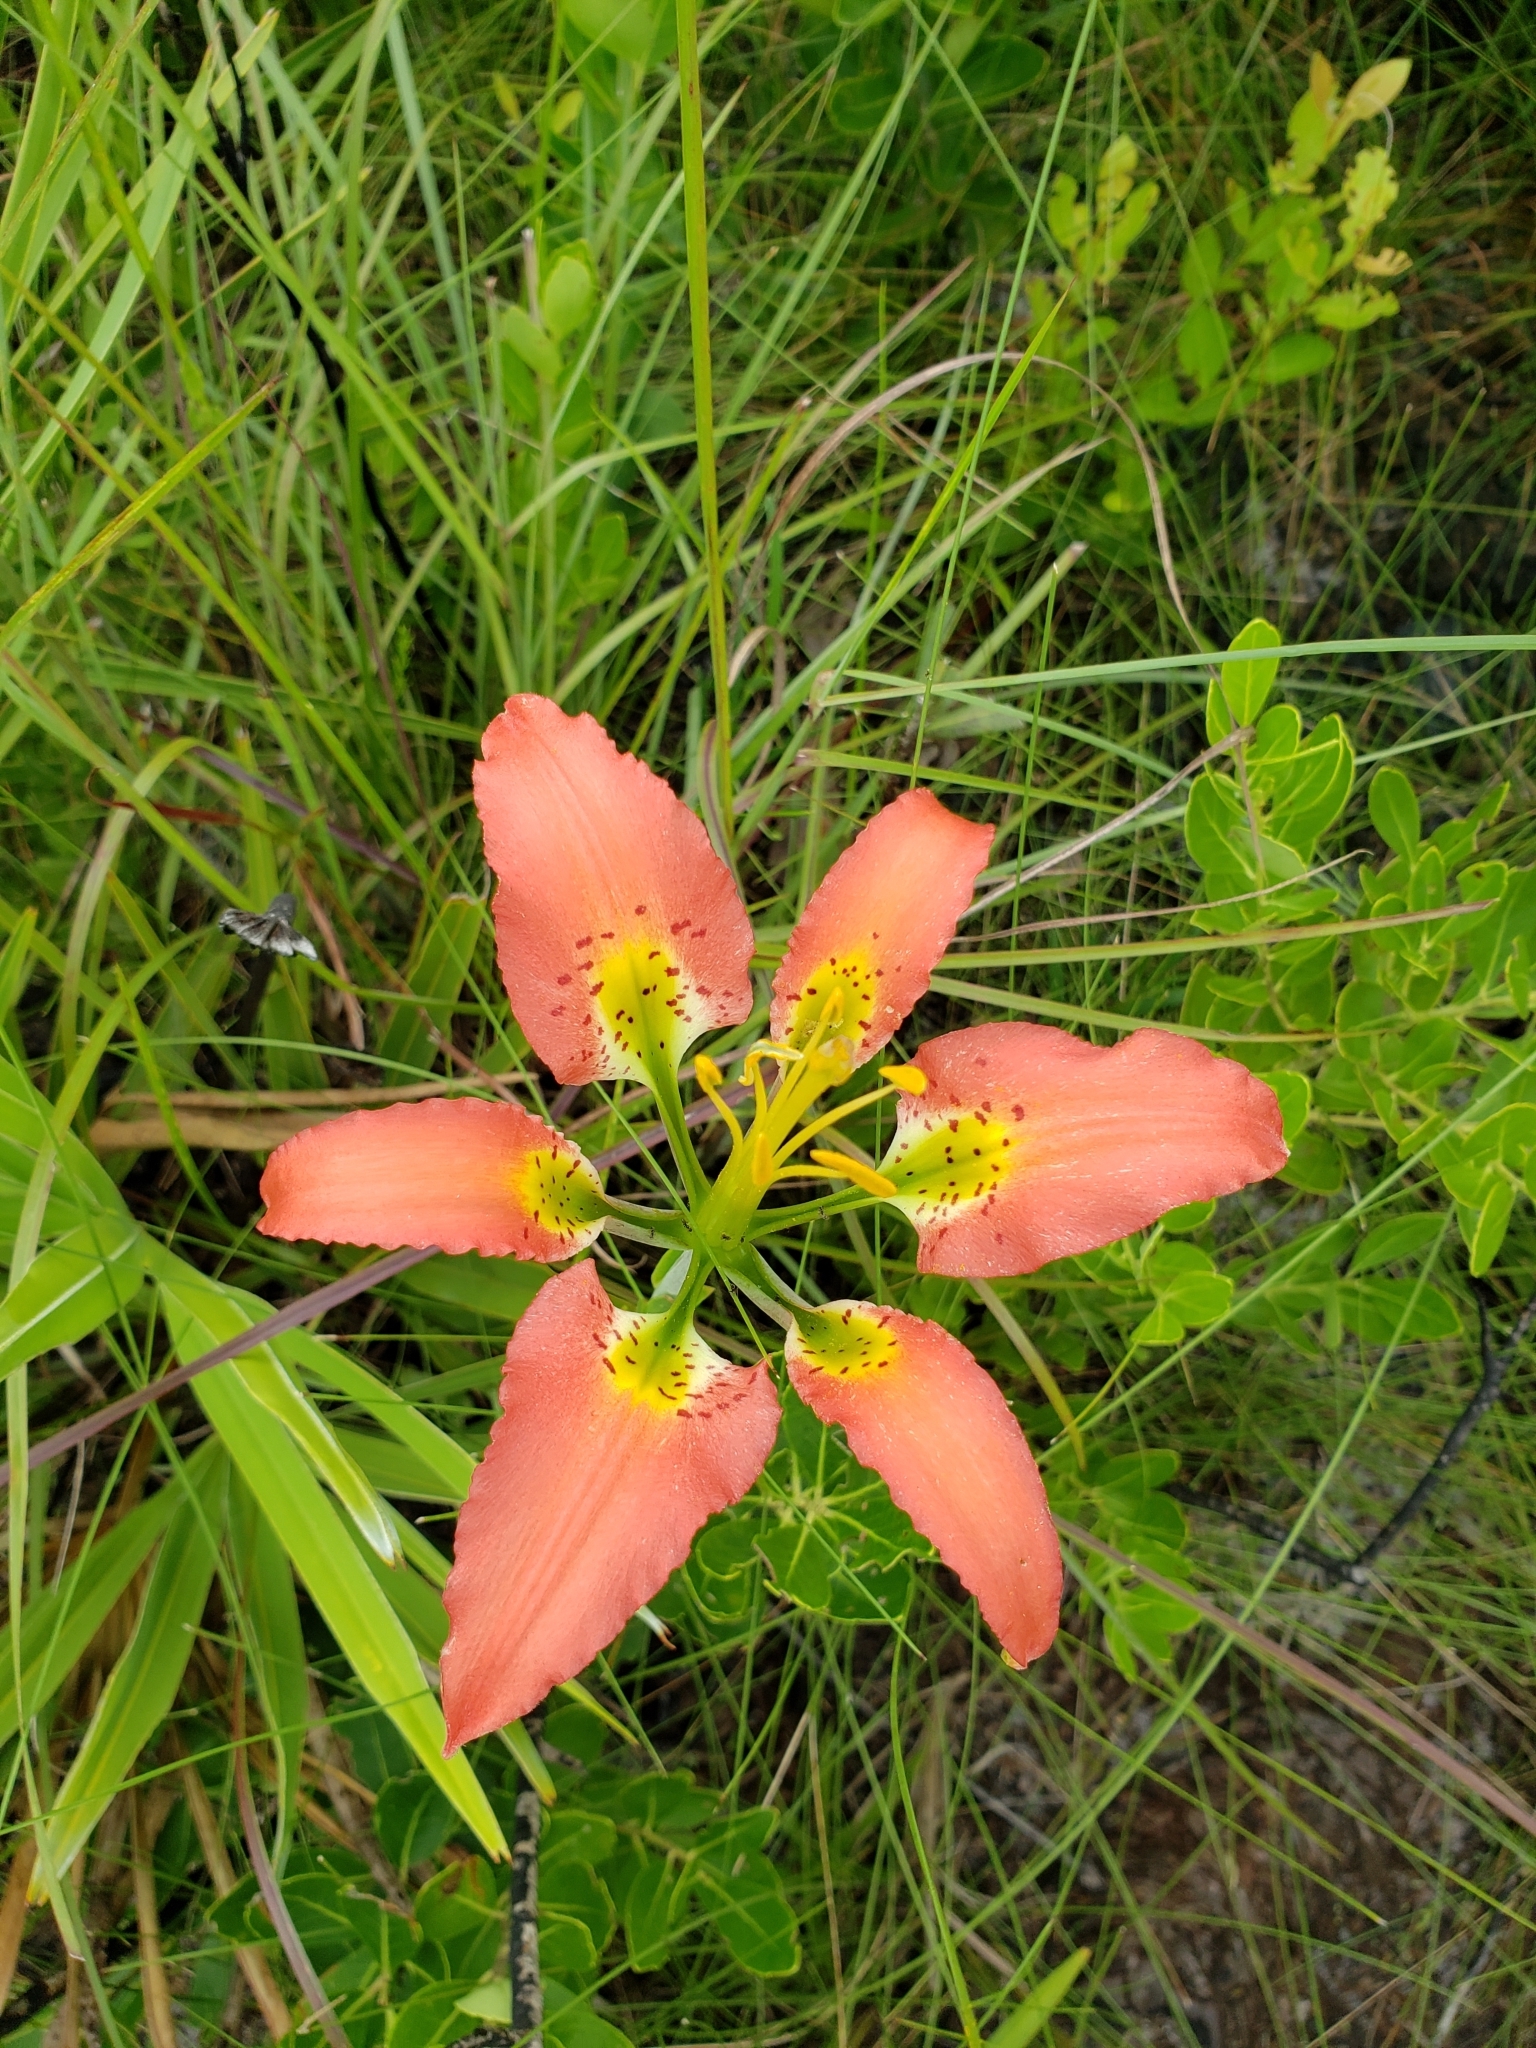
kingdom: Plantae
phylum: Tracheophyta
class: Liliopsida
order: Liliales
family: Liliaceae
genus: Lilium
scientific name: Lilium catesbaei
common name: Catesby's lily
